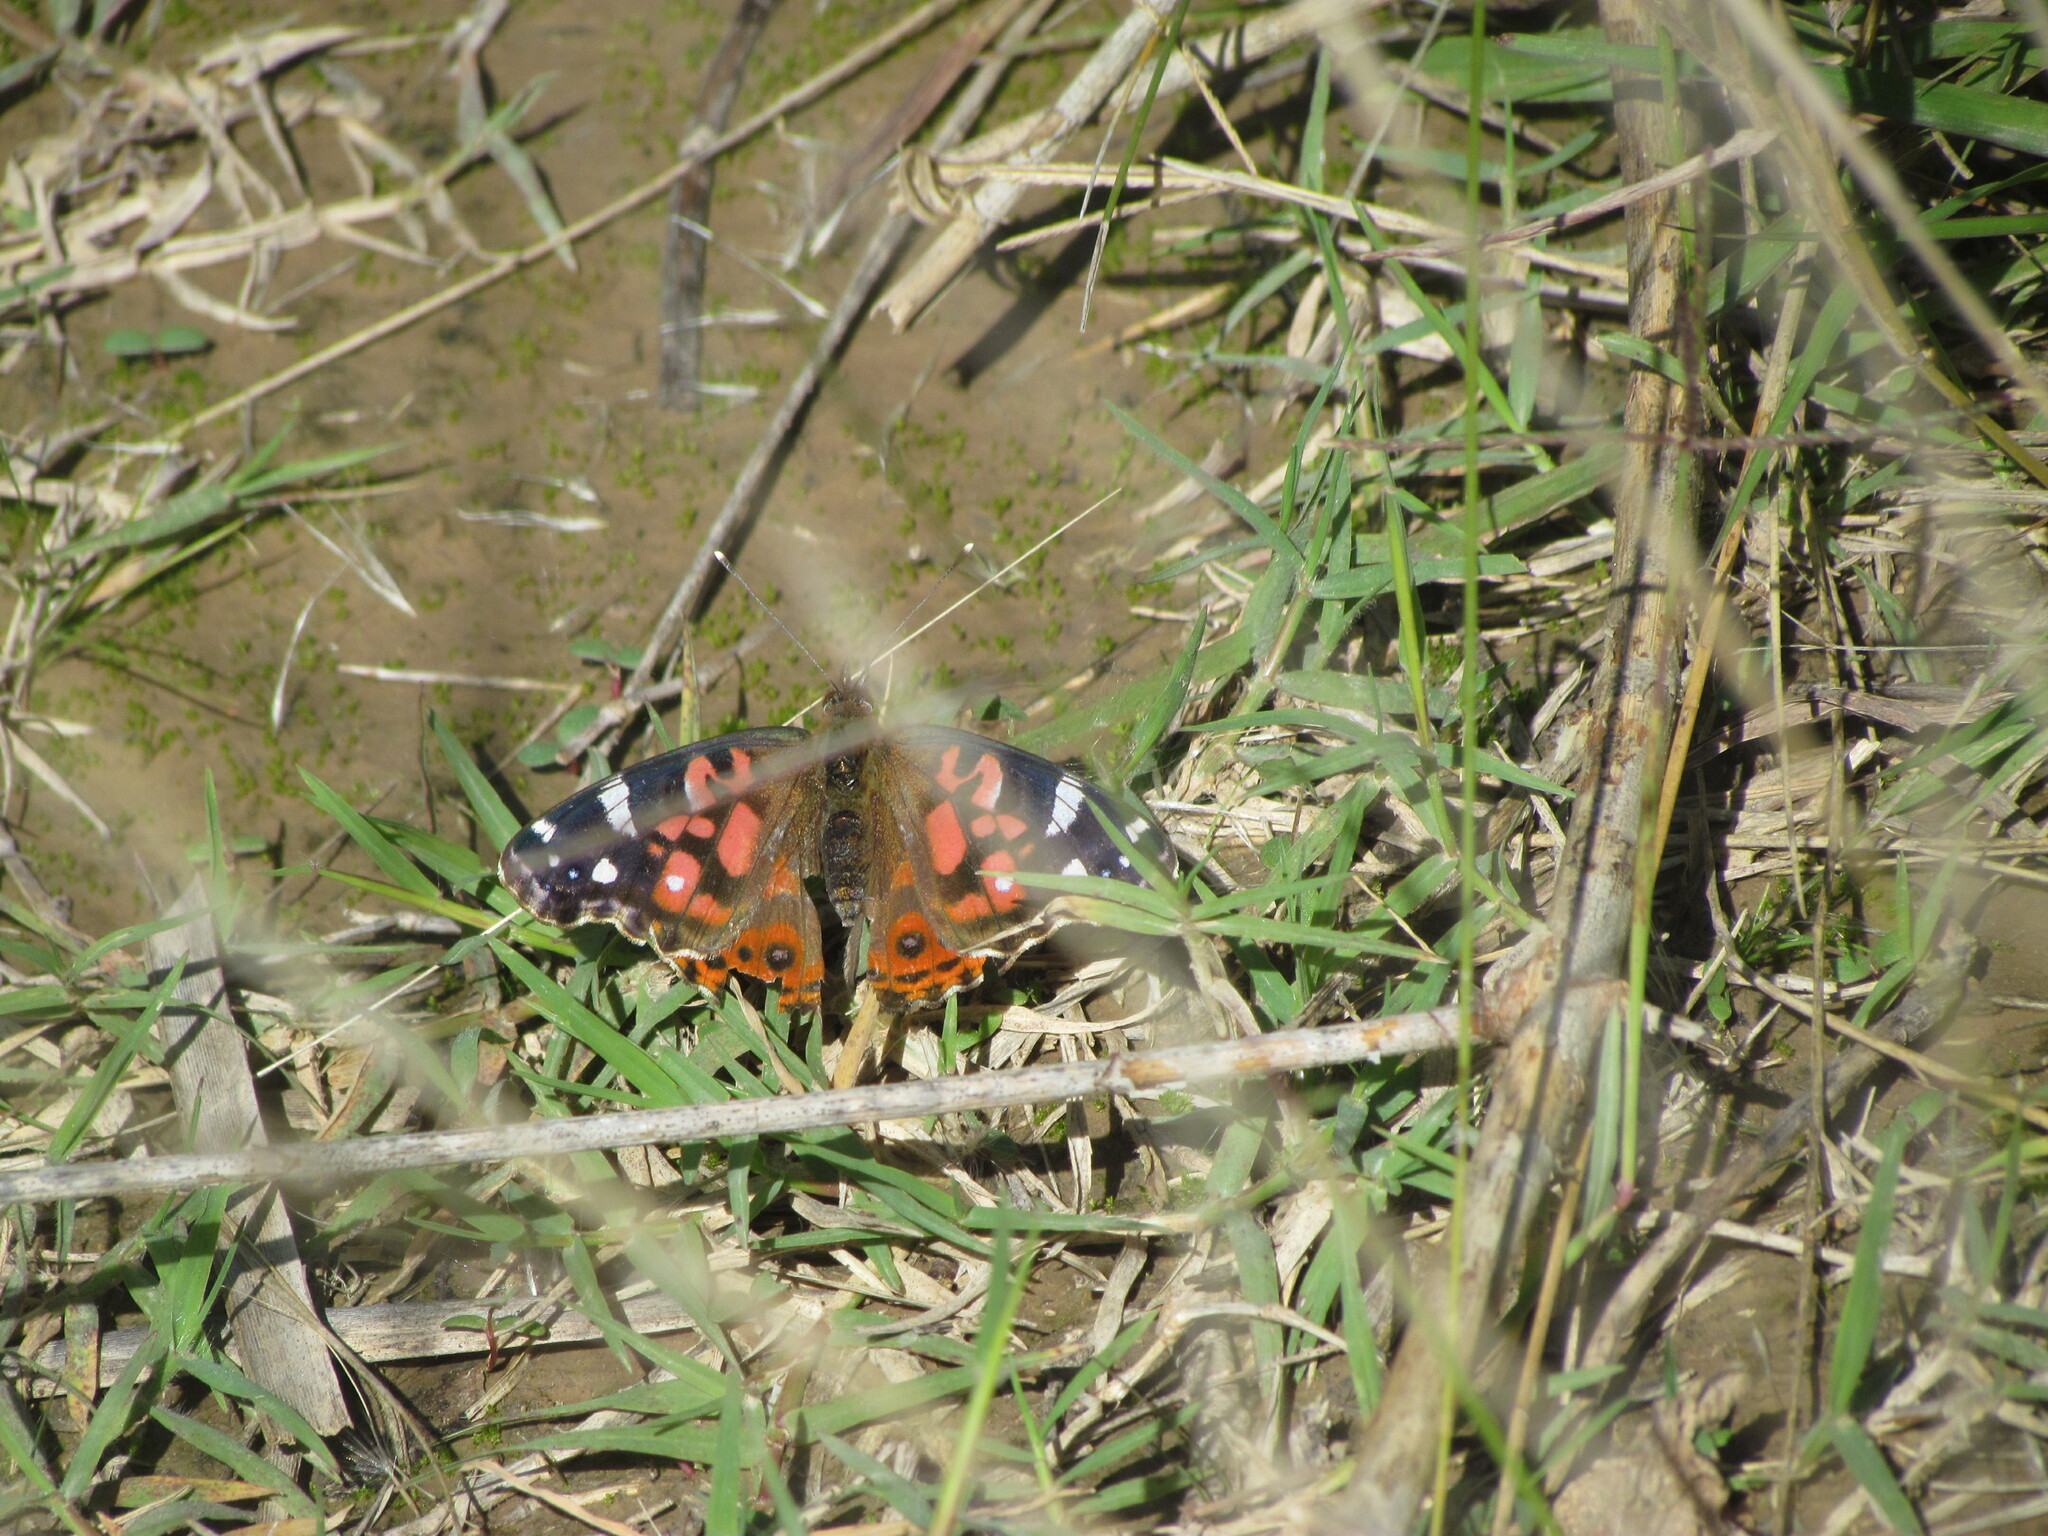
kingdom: Animalia
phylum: Arthropoda
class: Insecta
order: Lepidoptera
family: Nymphalidae
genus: Vanessa
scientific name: Vanessa braziliensis
